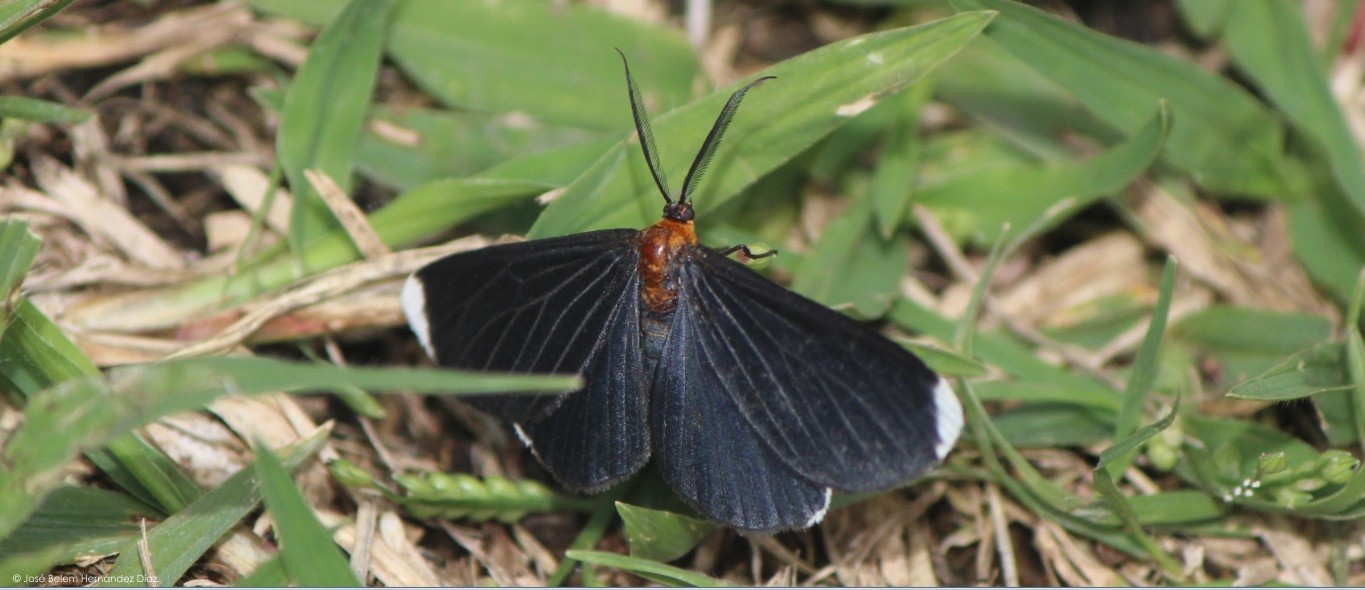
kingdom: Animalia
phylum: Arthropoda
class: Insecta
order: Lepidoptera
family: Geometridae
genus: Melanchroia
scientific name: Melanchroia chephise
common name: White-tipped black
